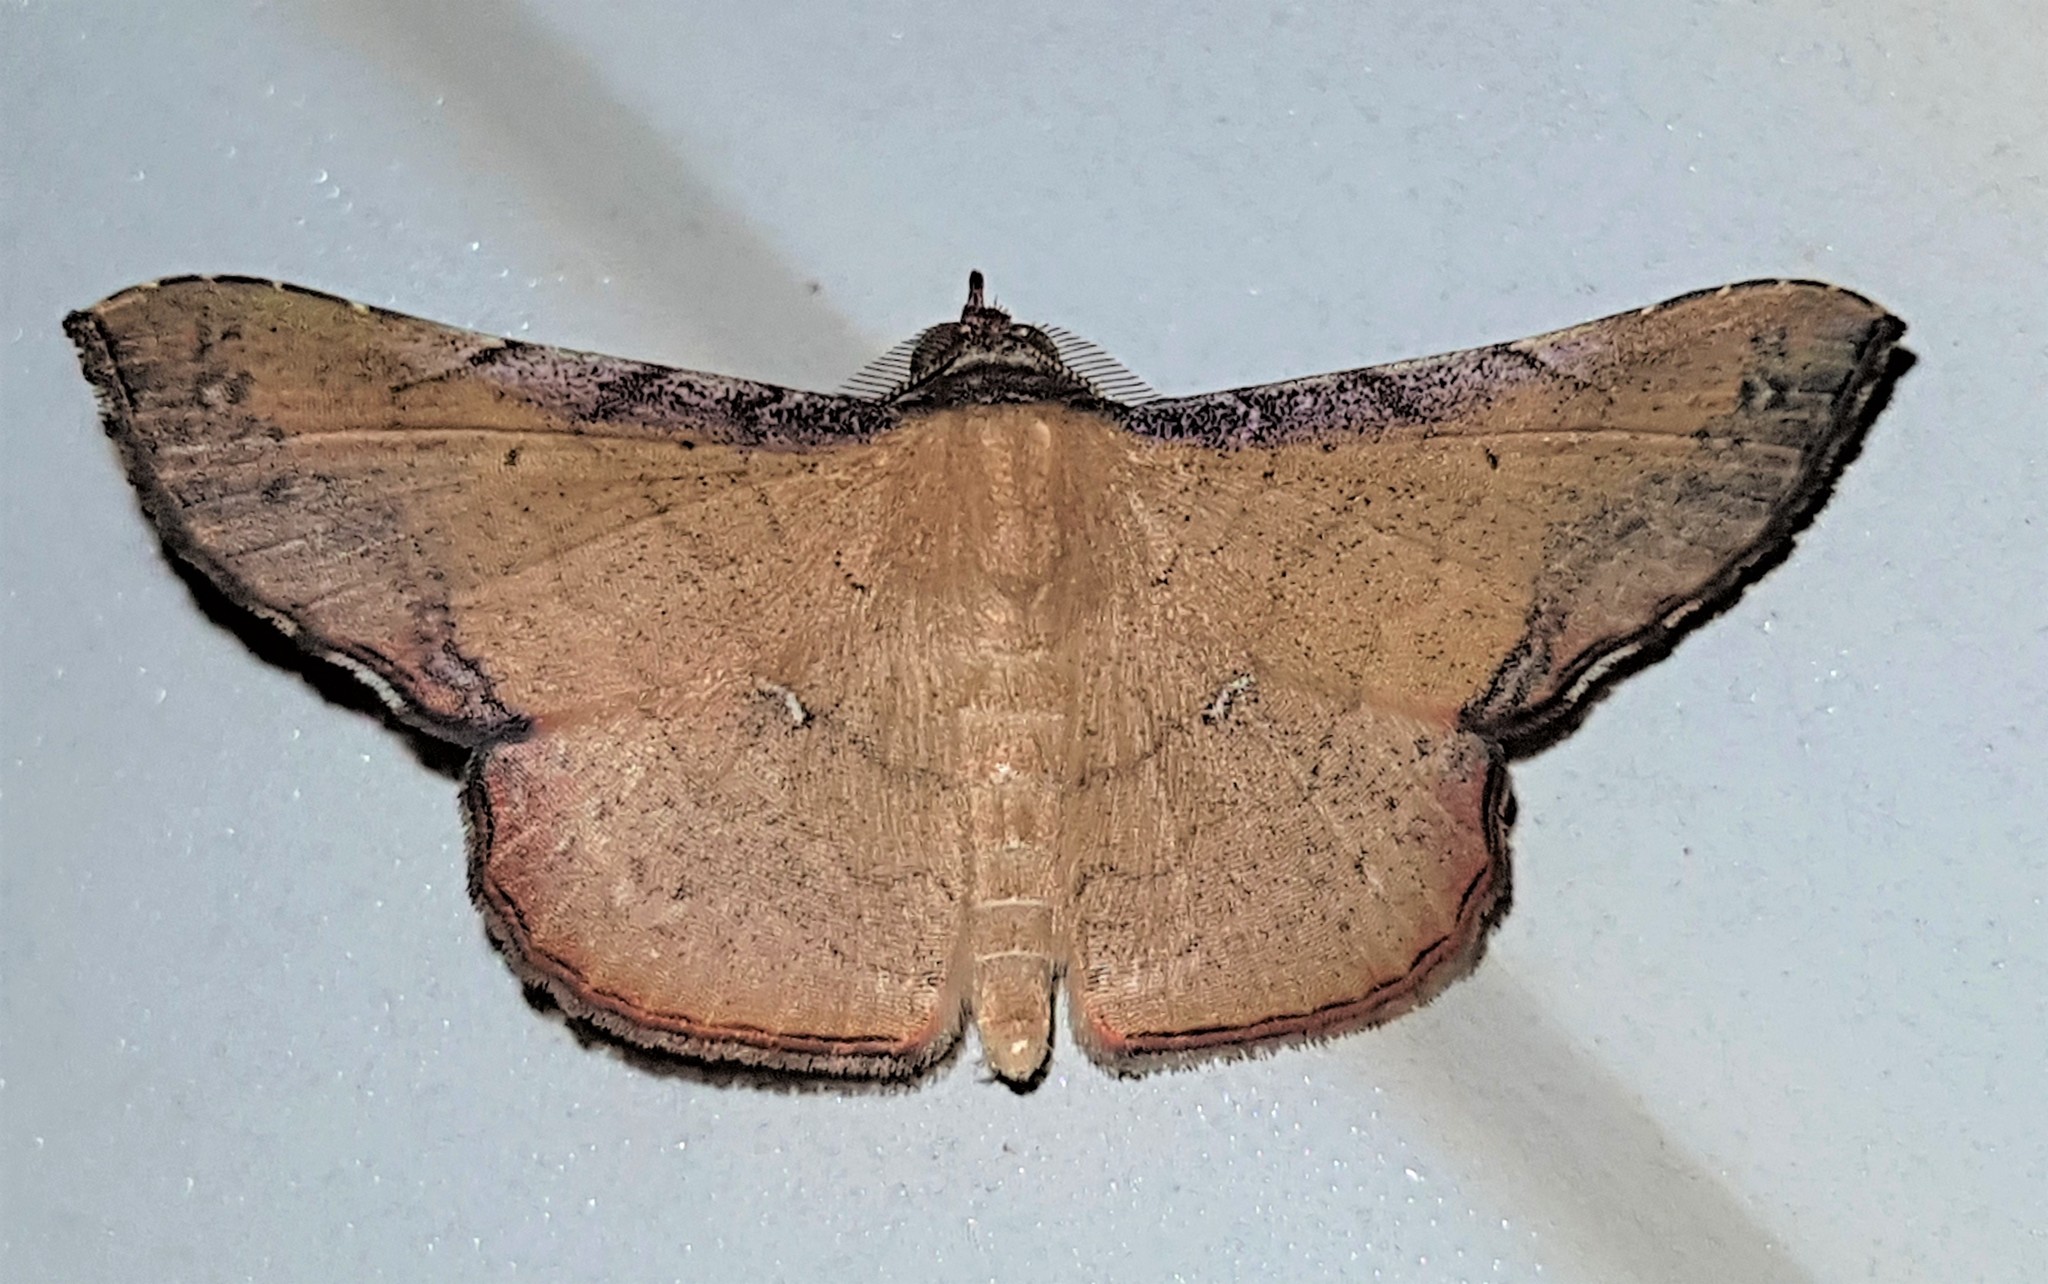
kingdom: Animalia
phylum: Arthropoda
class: Insecta
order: Lepidoptera
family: Erebidae
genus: Cryptochrostis
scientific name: Cryptochrostis suppulchraria
